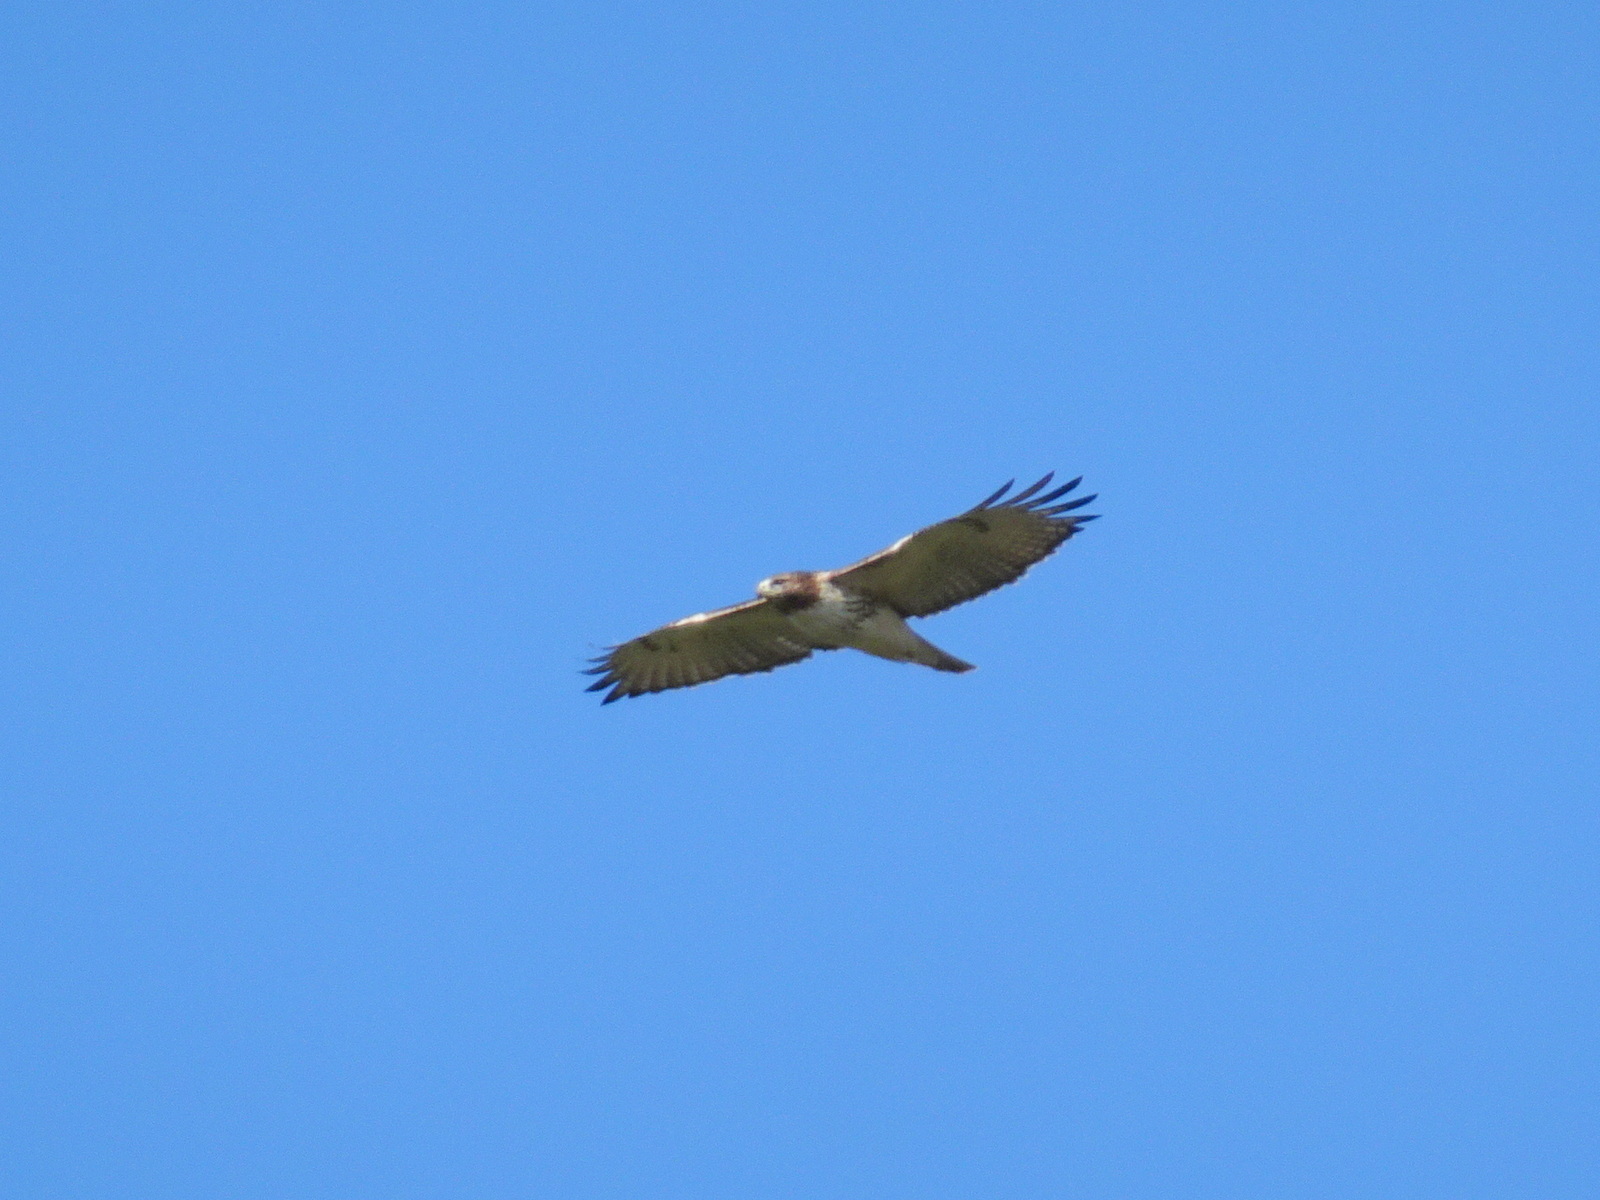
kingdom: Animalia
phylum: Chordata
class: Aves
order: Accipitriformes
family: Accipitridae
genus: Buteo
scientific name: Buteo jamaicensis
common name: Red-tailed hawk
